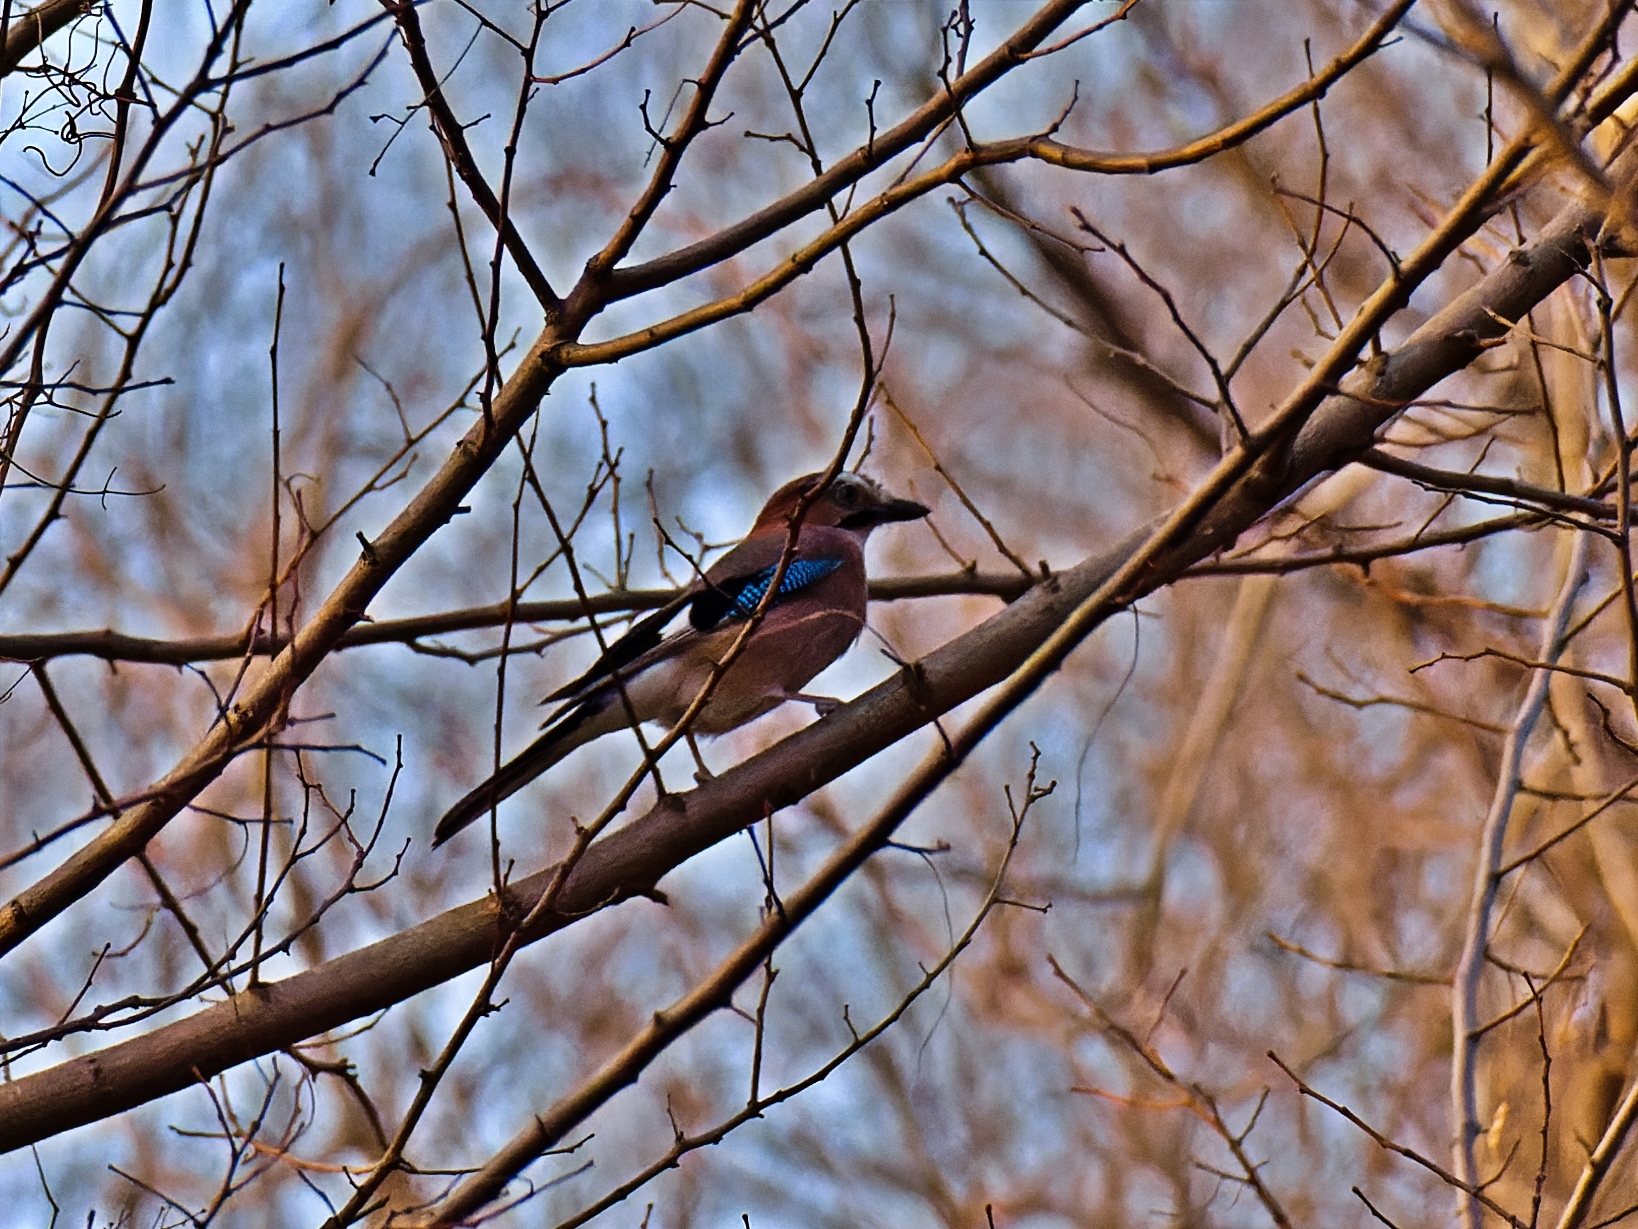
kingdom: Animalia
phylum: Chordata
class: Aves
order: Passeriformes
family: Corvidae
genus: Garrulus
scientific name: Garrulus glandarius
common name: Eurasian jay
